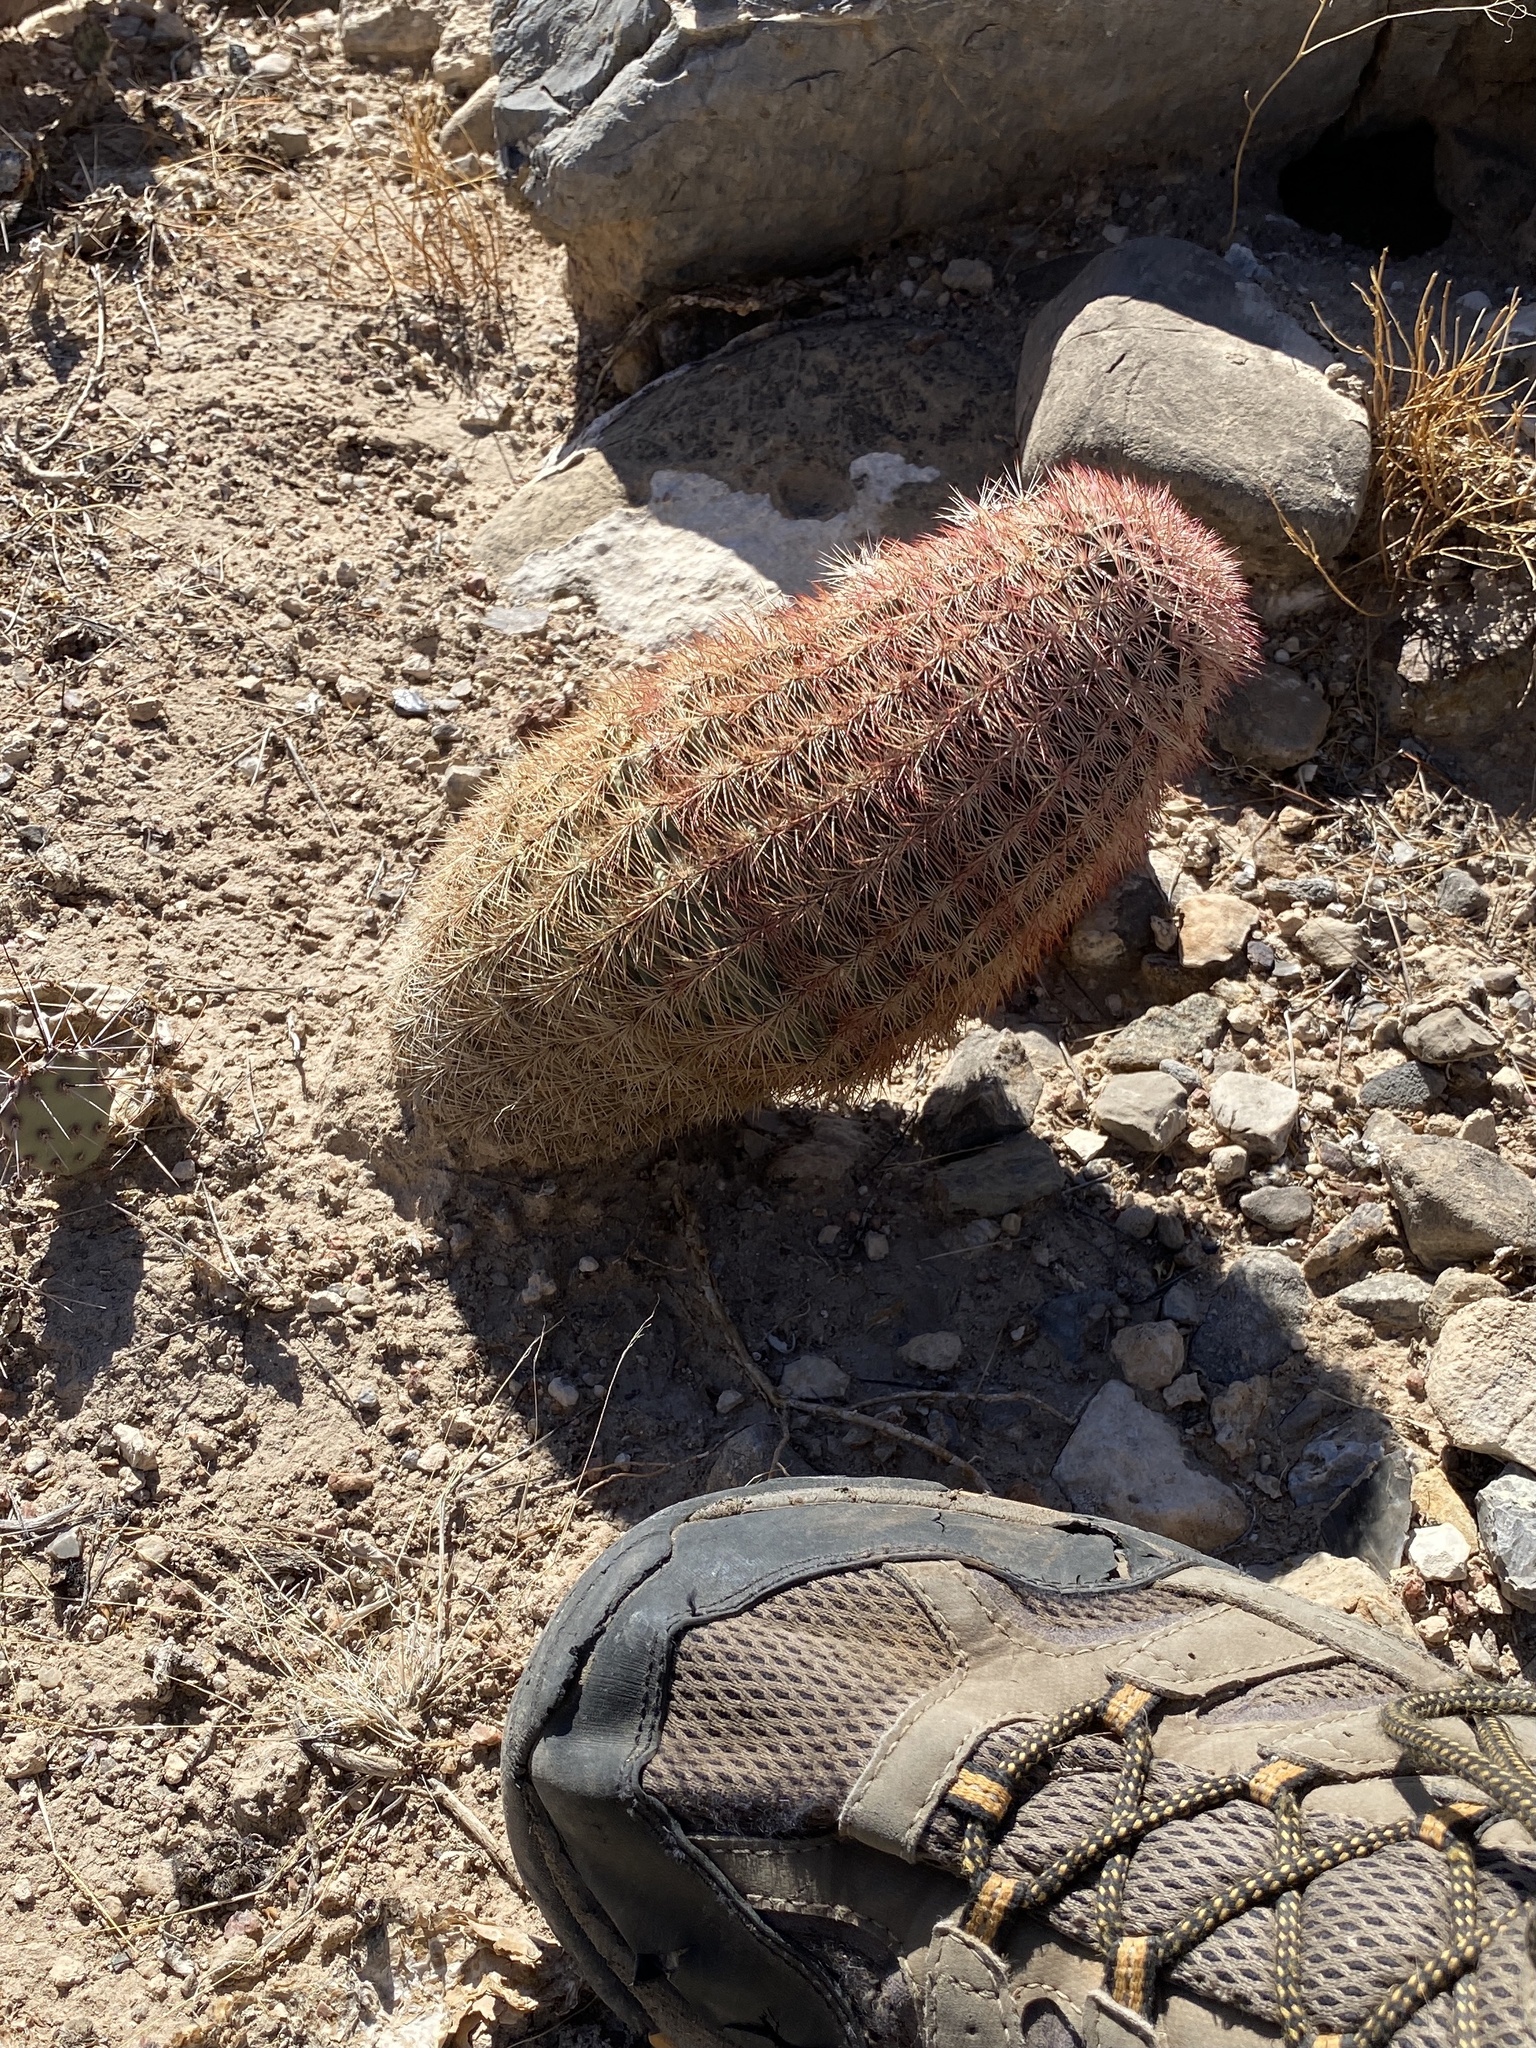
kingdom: Plantae
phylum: Tracheophyta
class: Magnoliopsida
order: Caryophyllales
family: Cactaceae
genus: Echinocereus
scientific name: Echinocereus dasyacanthus
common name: Spiny hedgehog cactus
